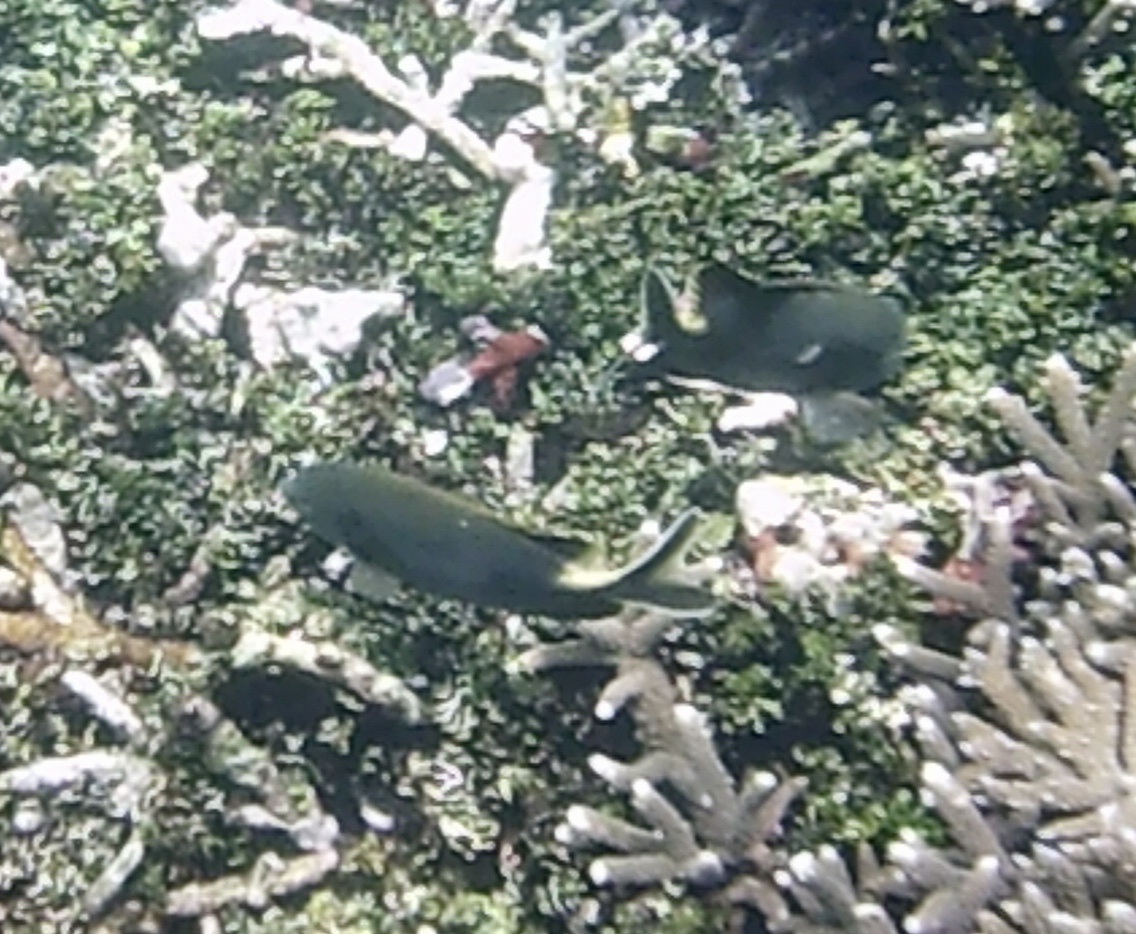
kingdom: Animalia
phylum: Chordata
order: Perciformes
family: Siganidae
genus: Siganus
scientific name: Siganus stellatus
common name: Brown-spotted spinefoot
